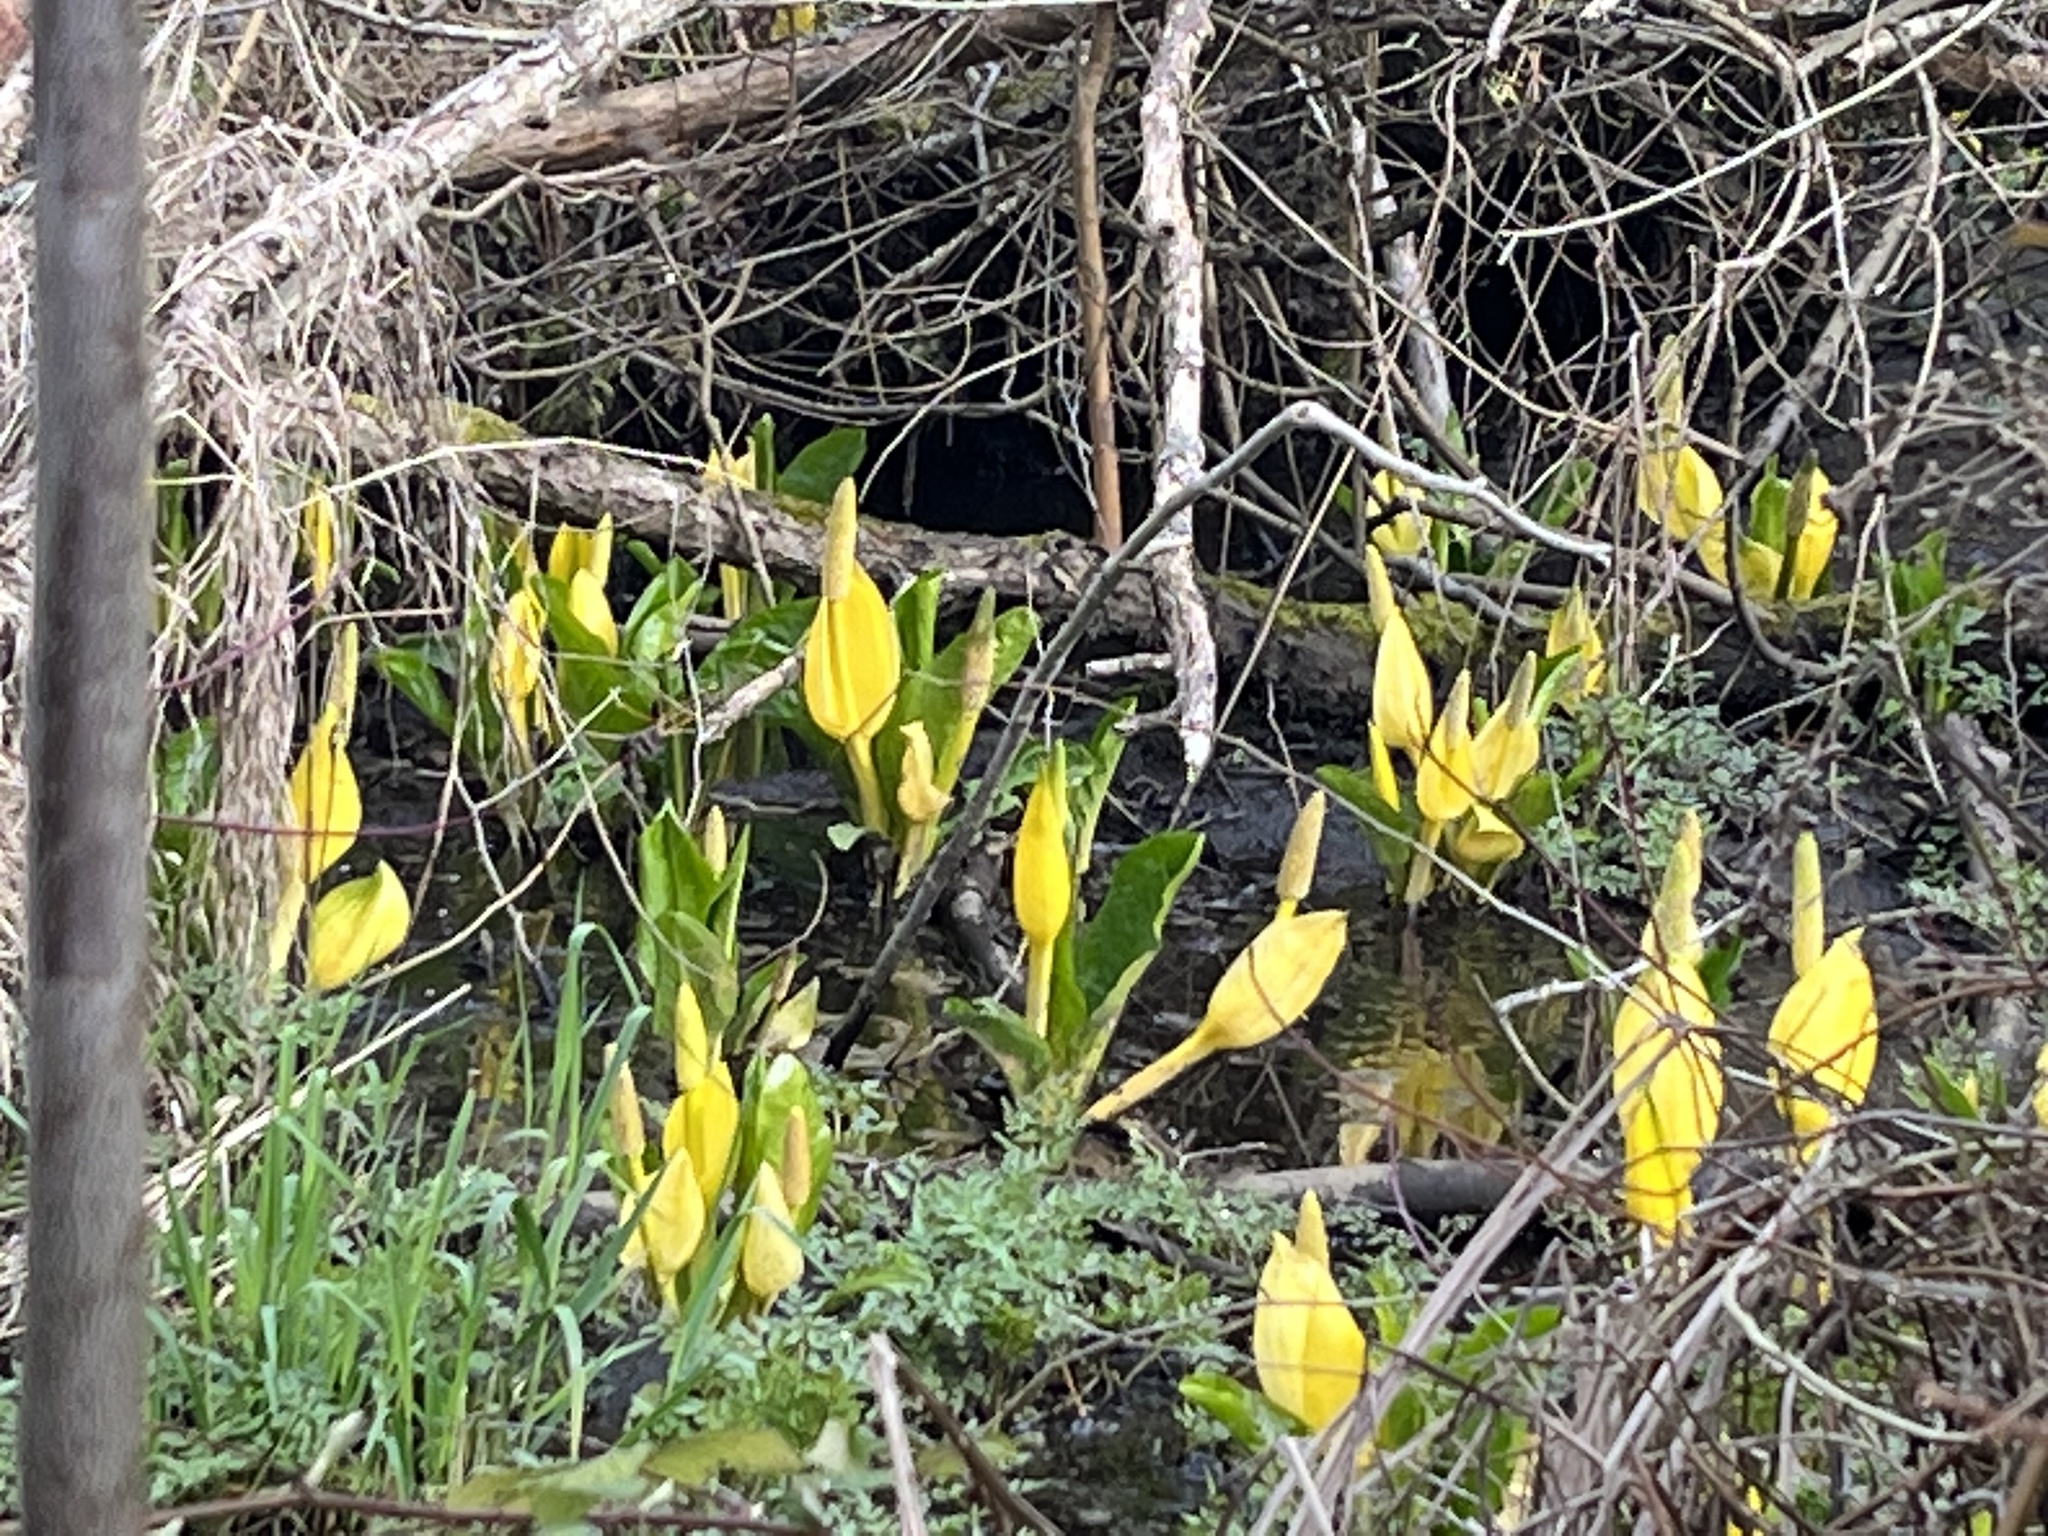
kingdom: Plantae
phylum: Tracheophyta
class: Liliopsida
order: Alismatales
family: Araceae
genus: Lysichiton
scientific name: Lysichiton americanus
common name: American skunk cabbage
